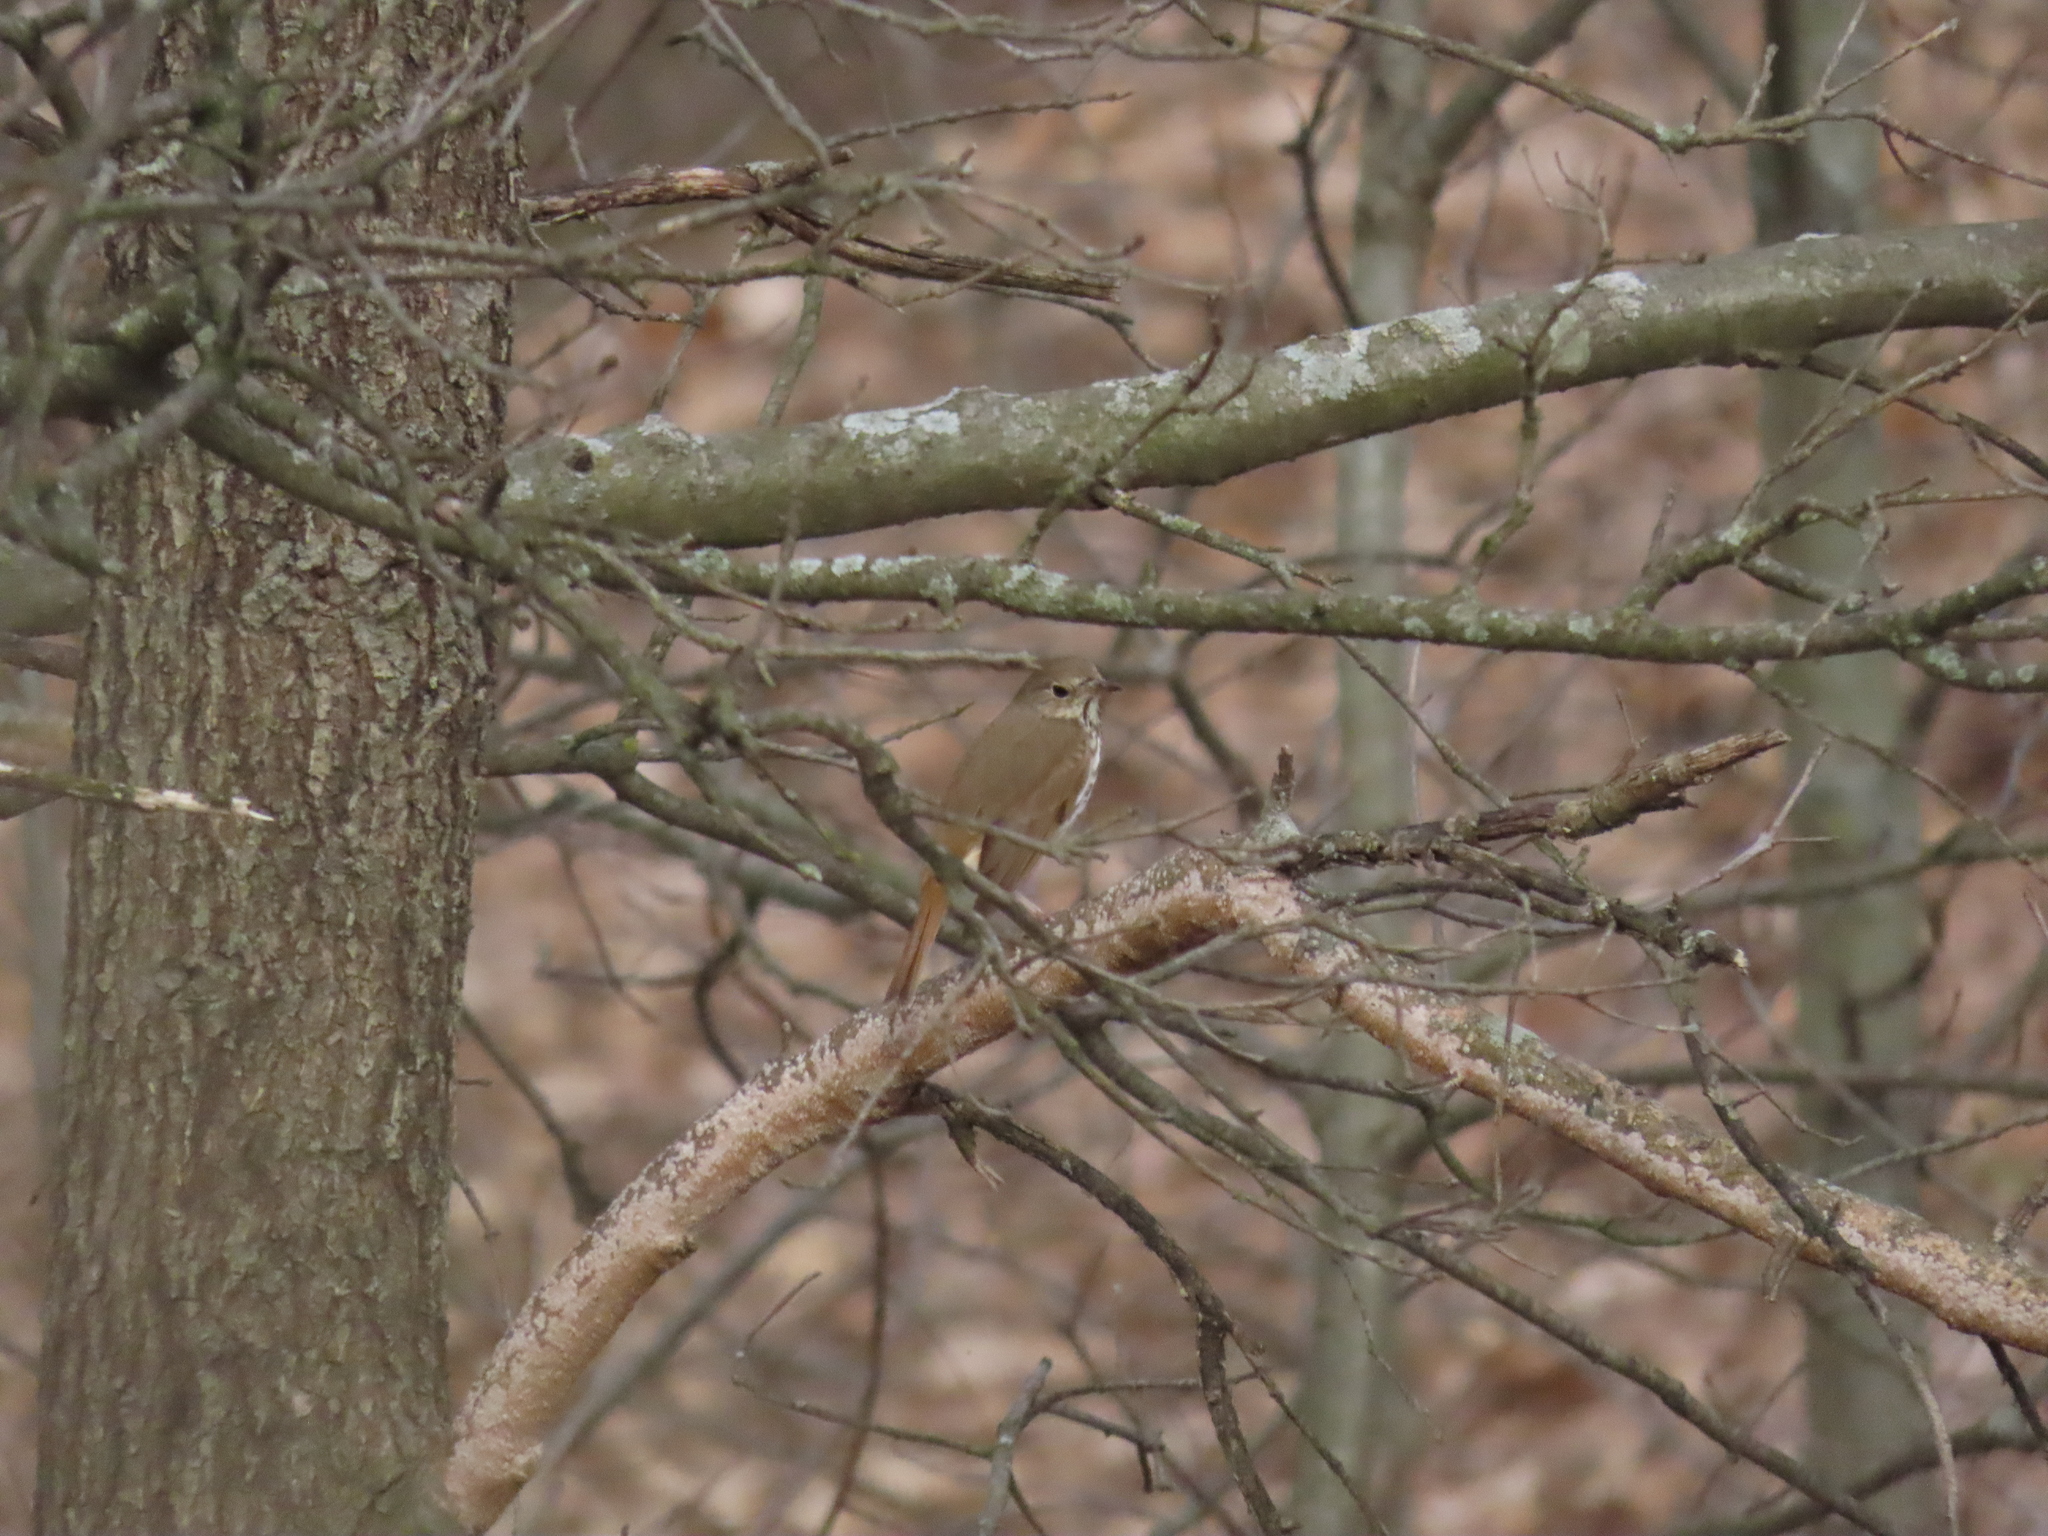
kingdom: Animalia
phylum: Chordata
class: Aves
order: Passeriformes
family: Turdidae
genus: Catharus
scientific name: Catharus guttatus
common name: Hermit thrush
